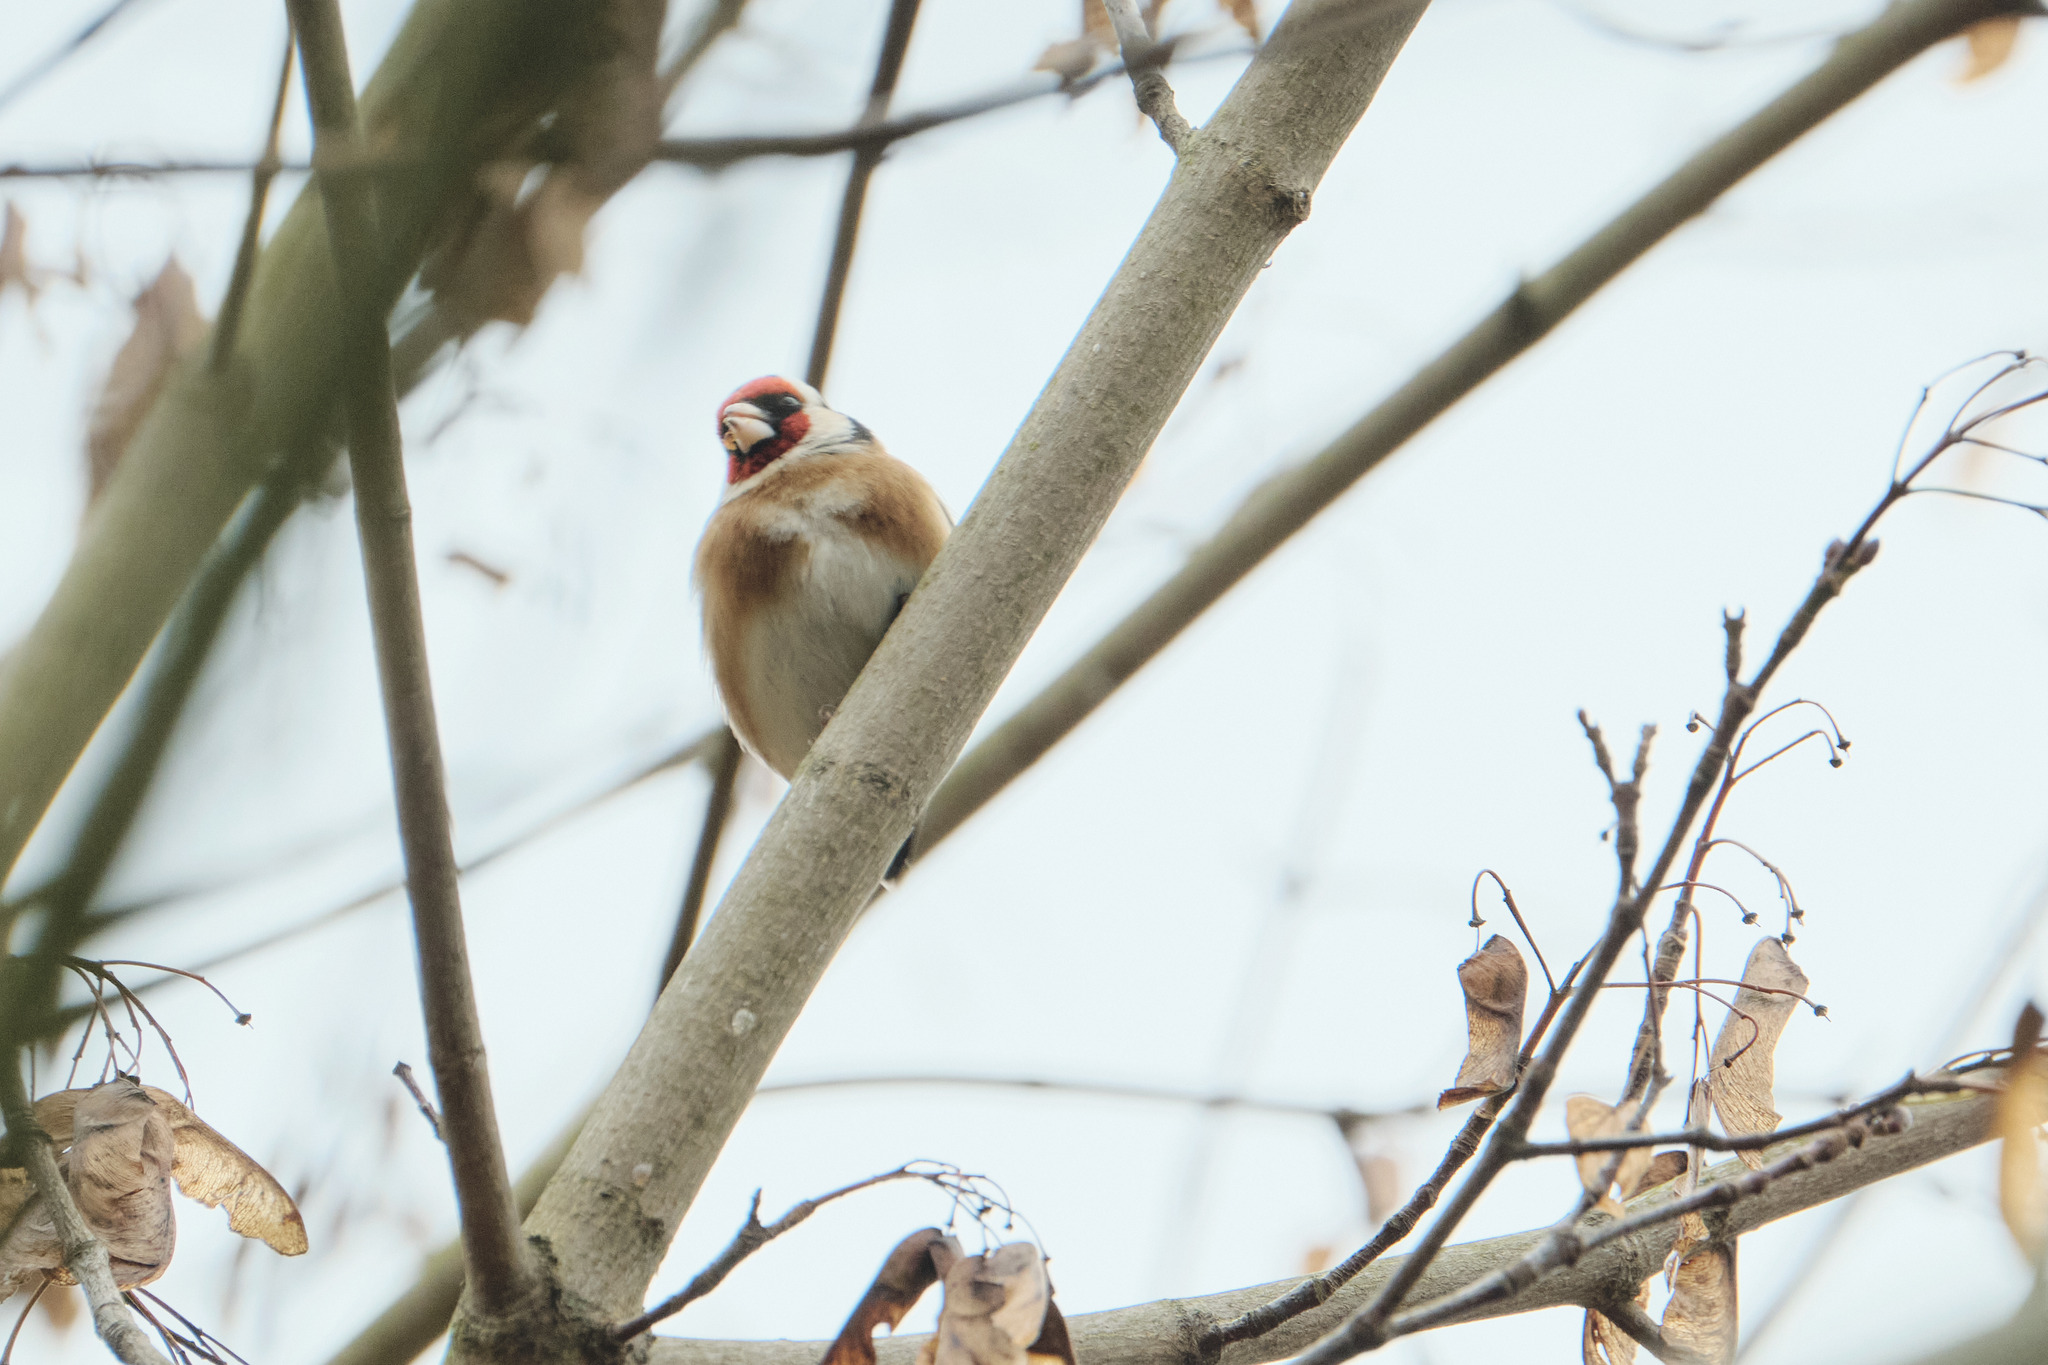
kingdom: Animalia
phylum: Chordata
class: Aves
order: Passeriformes
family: Fringillidae
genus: Carduelis
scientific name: Carduelis carduelis
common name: European goldfinch
